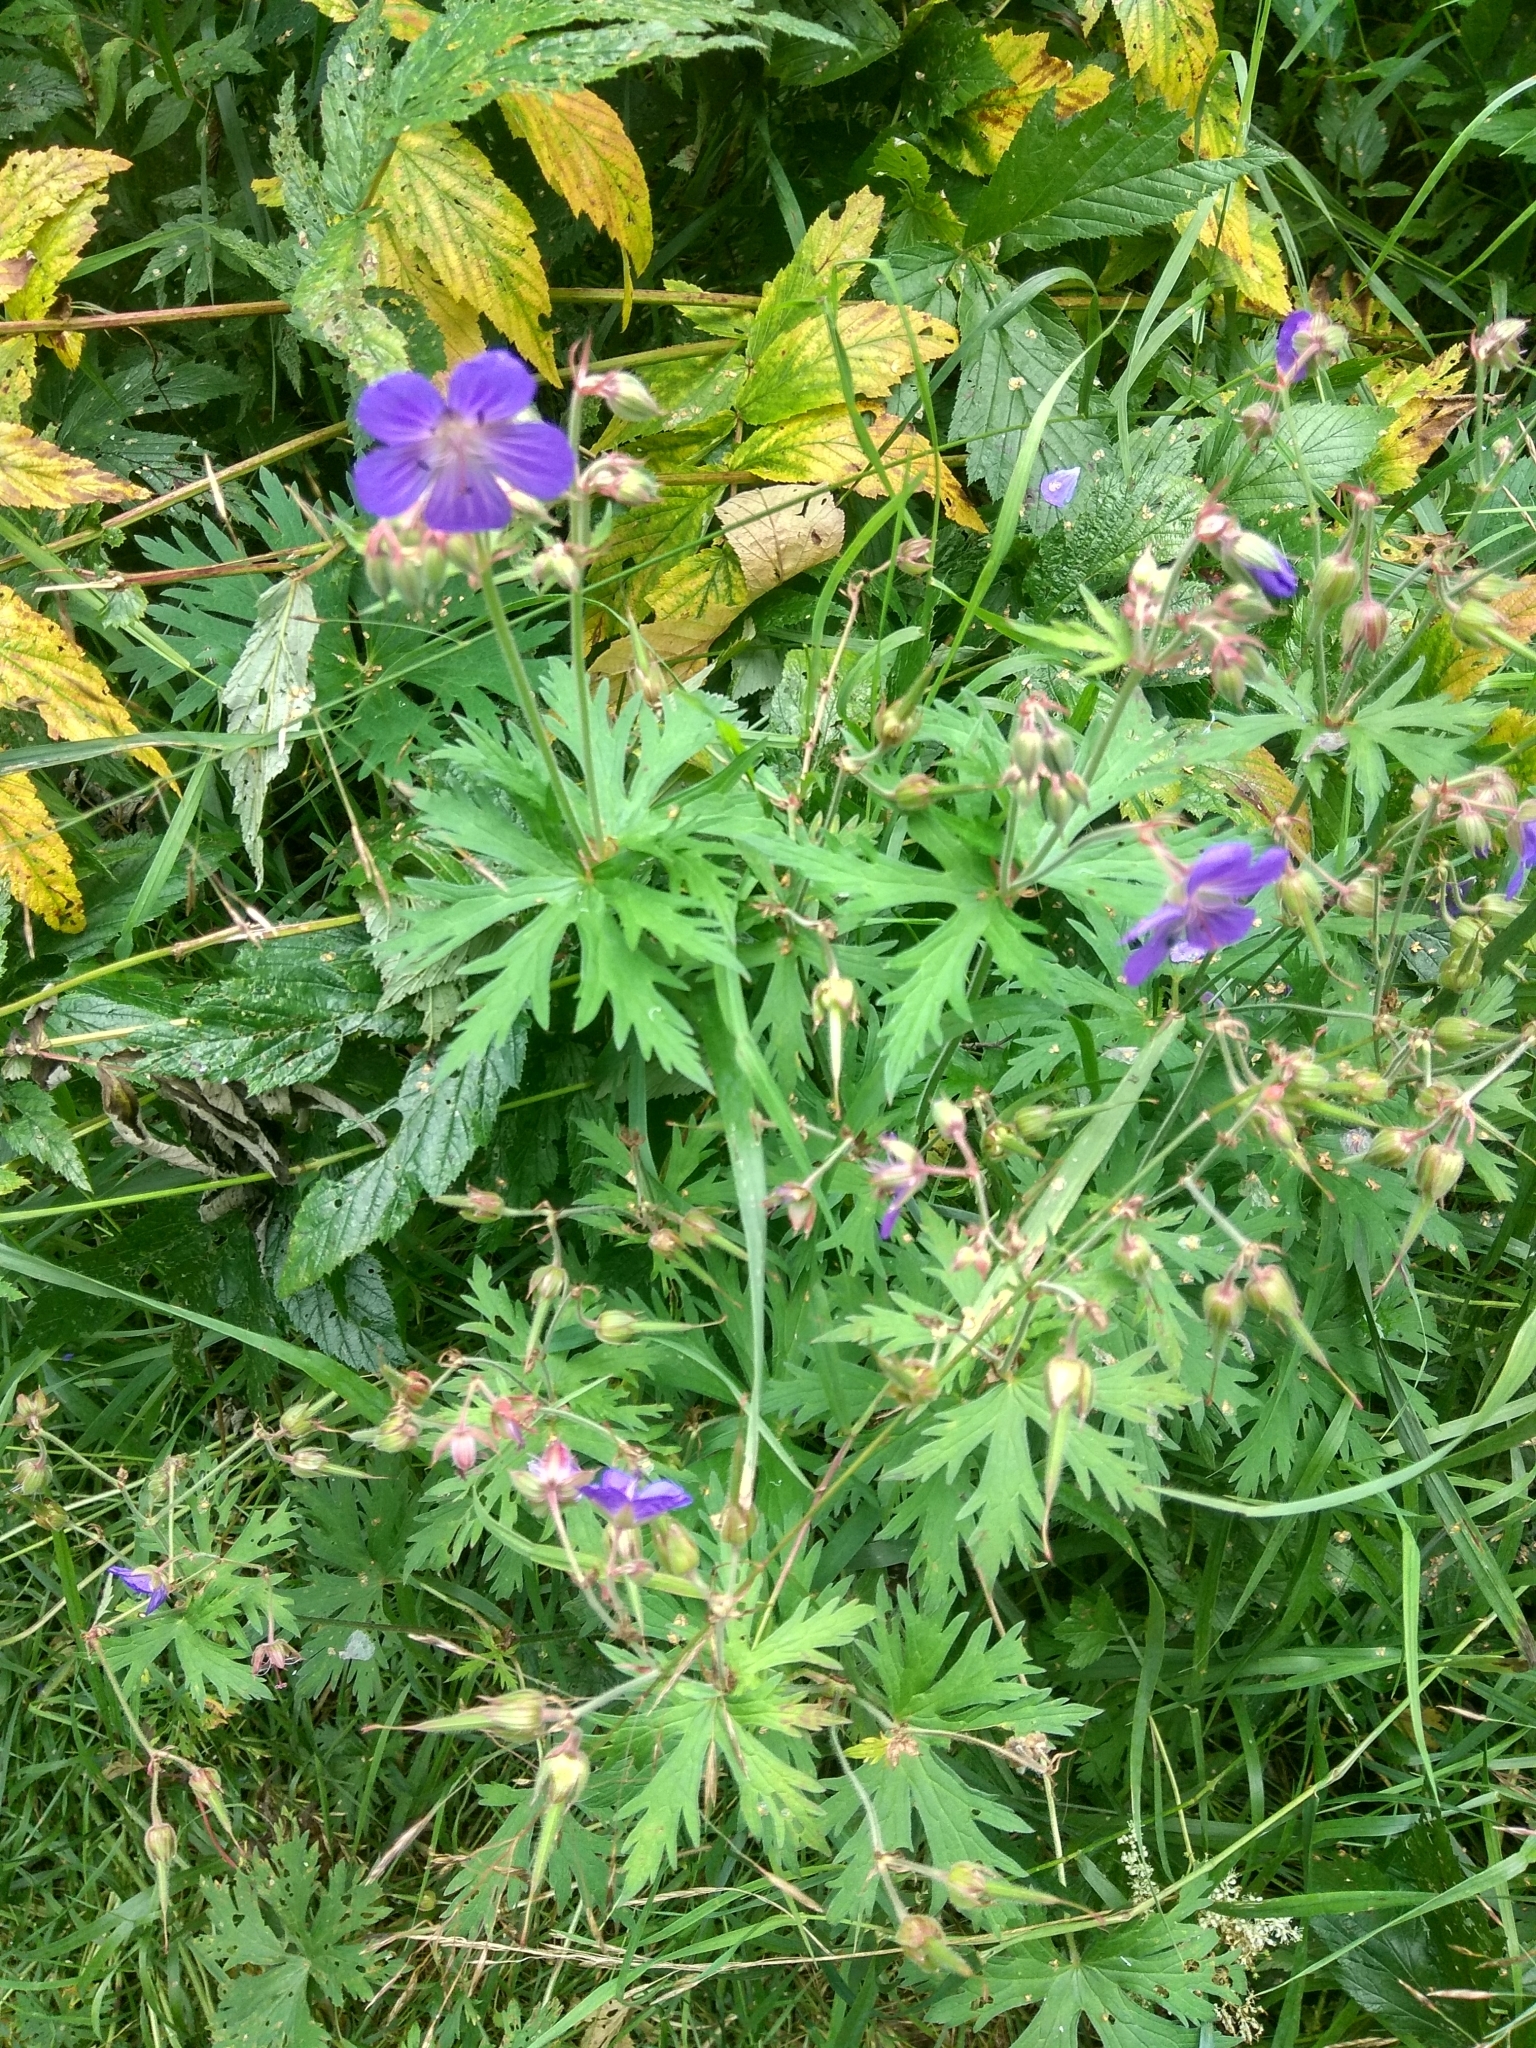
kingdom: Plantae
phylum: Tracheophyta
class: Magnoliopsida
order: Geraniales
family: Geraniaceae
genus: Geranium
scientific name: Geranium pratense
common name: Meadow crane's-bill
